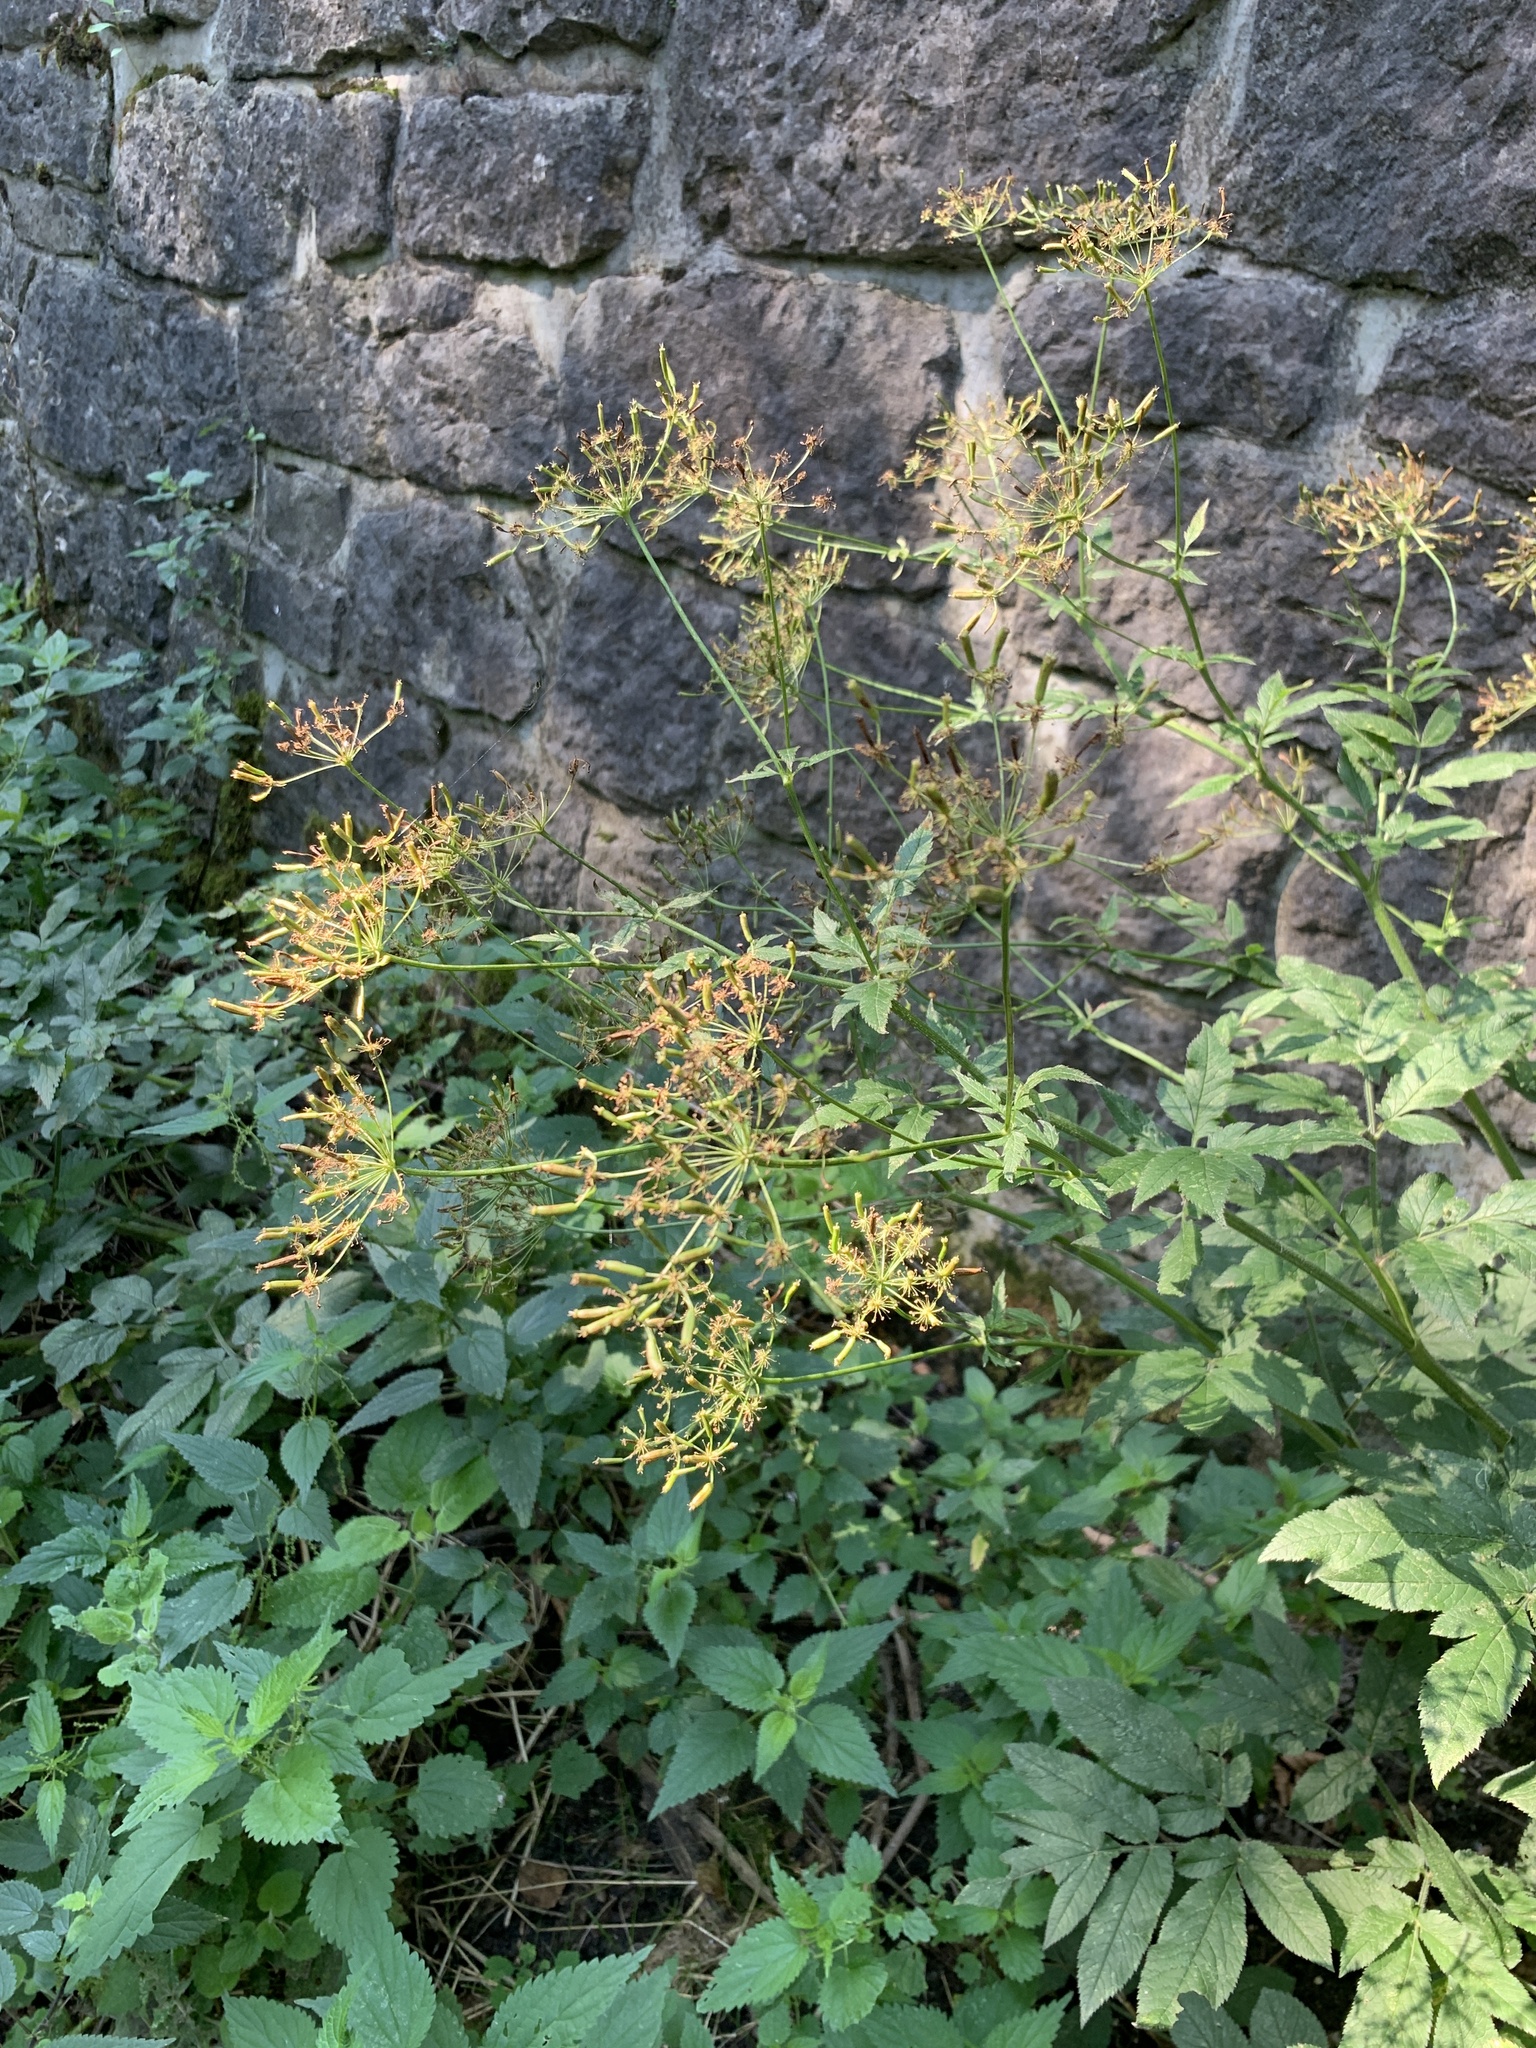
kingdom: Plantae
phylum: Tracheophyta
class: Magnoliopsida
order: Apiales
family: Apiaceae
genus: Chaerophyllum
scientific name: Chaerophyllum aromaticum
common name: Broadleaf chervil
